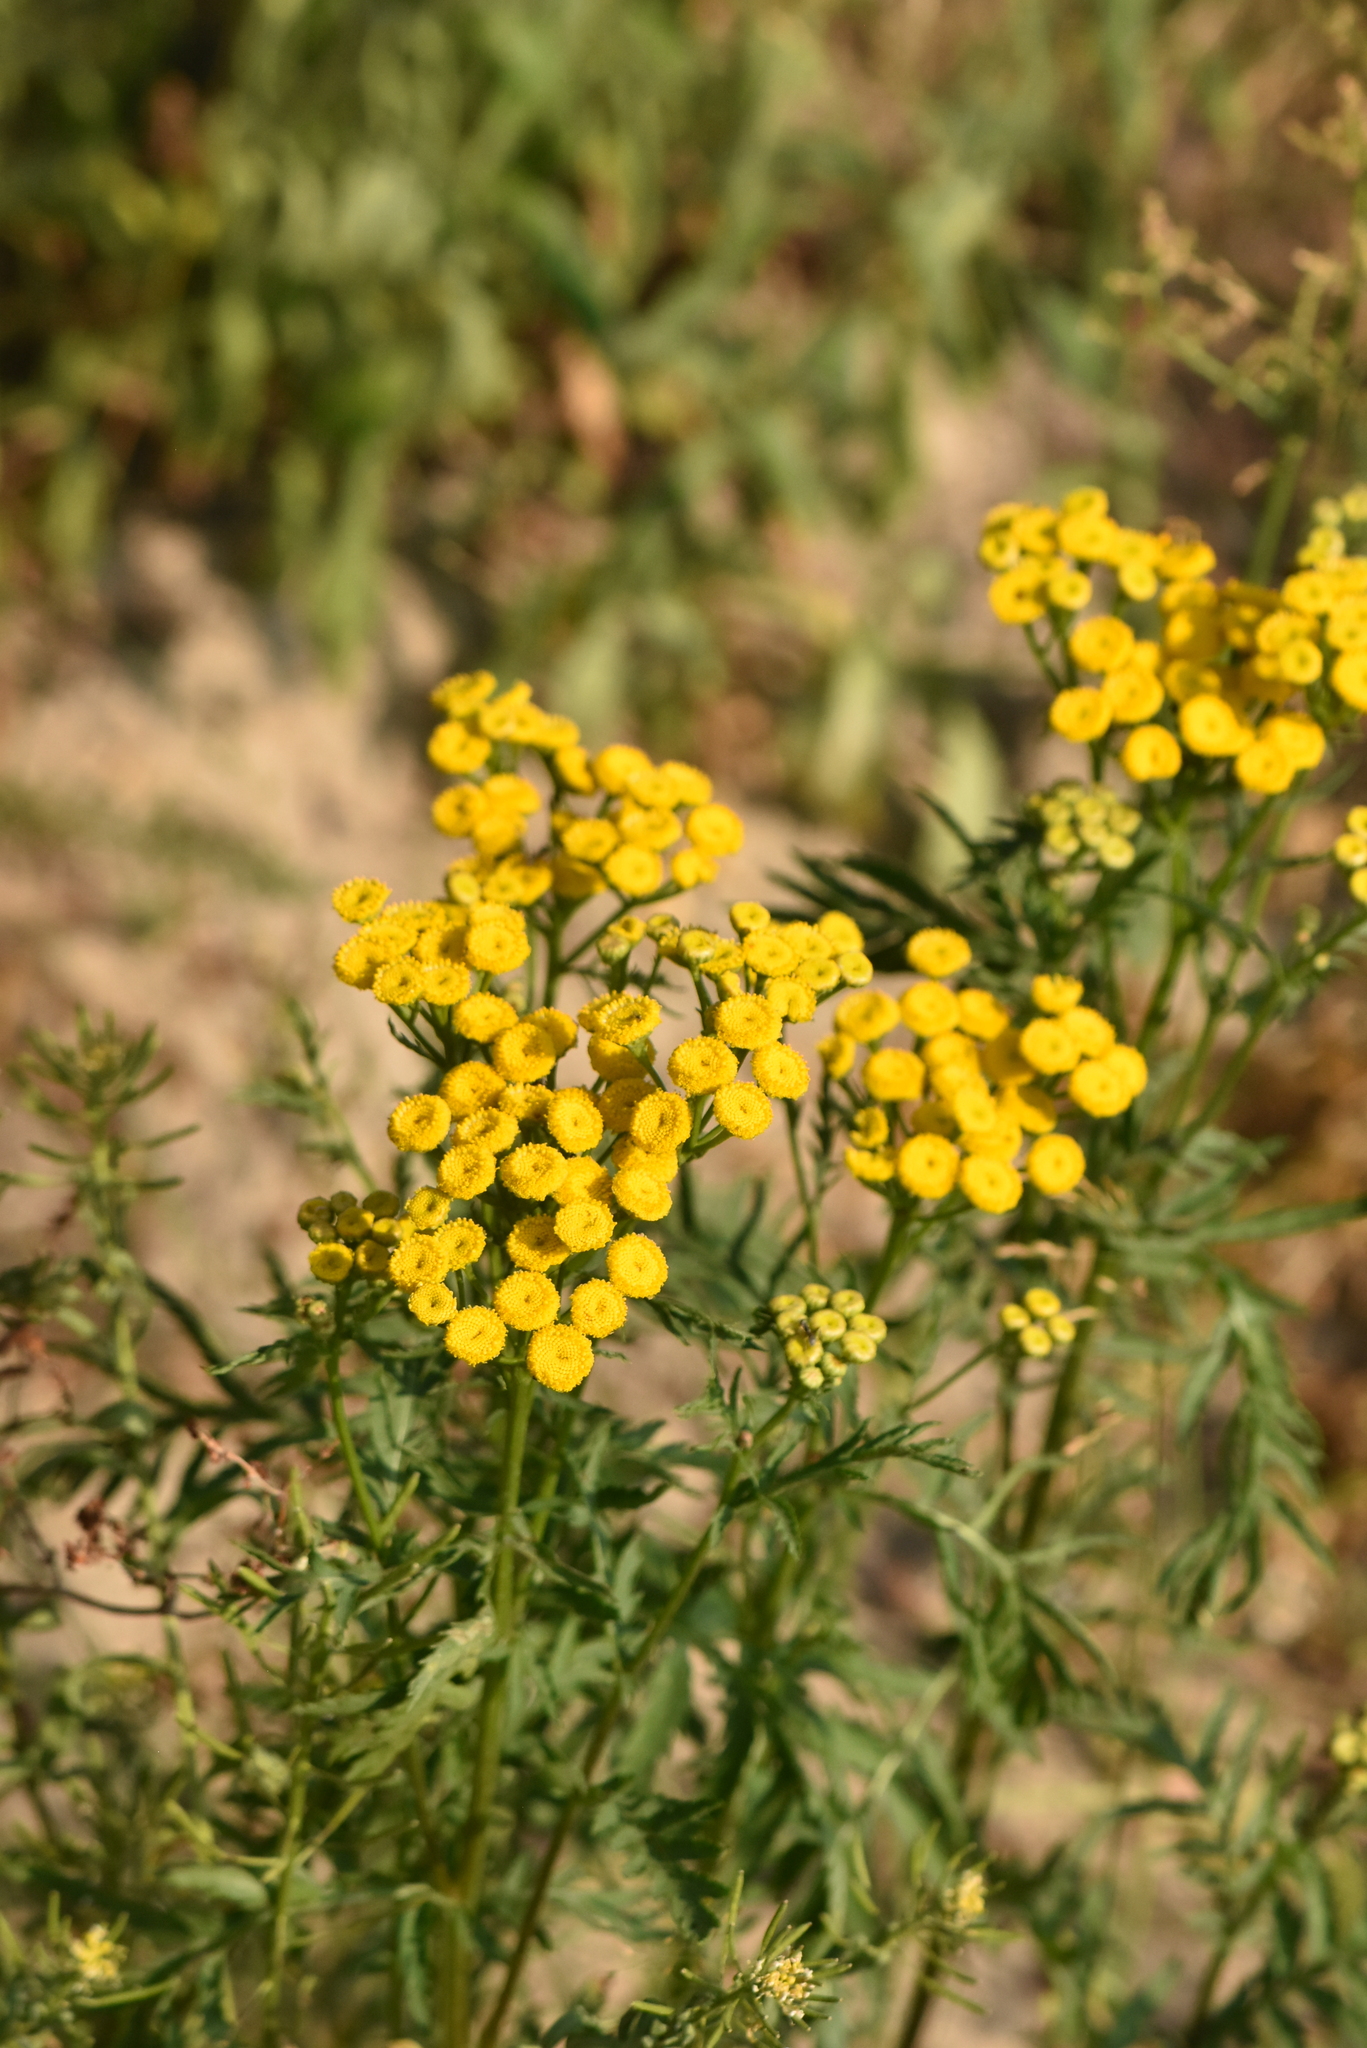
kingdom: Plantae
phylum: Tracheophyta
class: Magnoliopsida
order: Asterales
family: Asteraceae
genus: Tanacetum
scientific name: Tanacetum vulgare
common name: Common tansy
